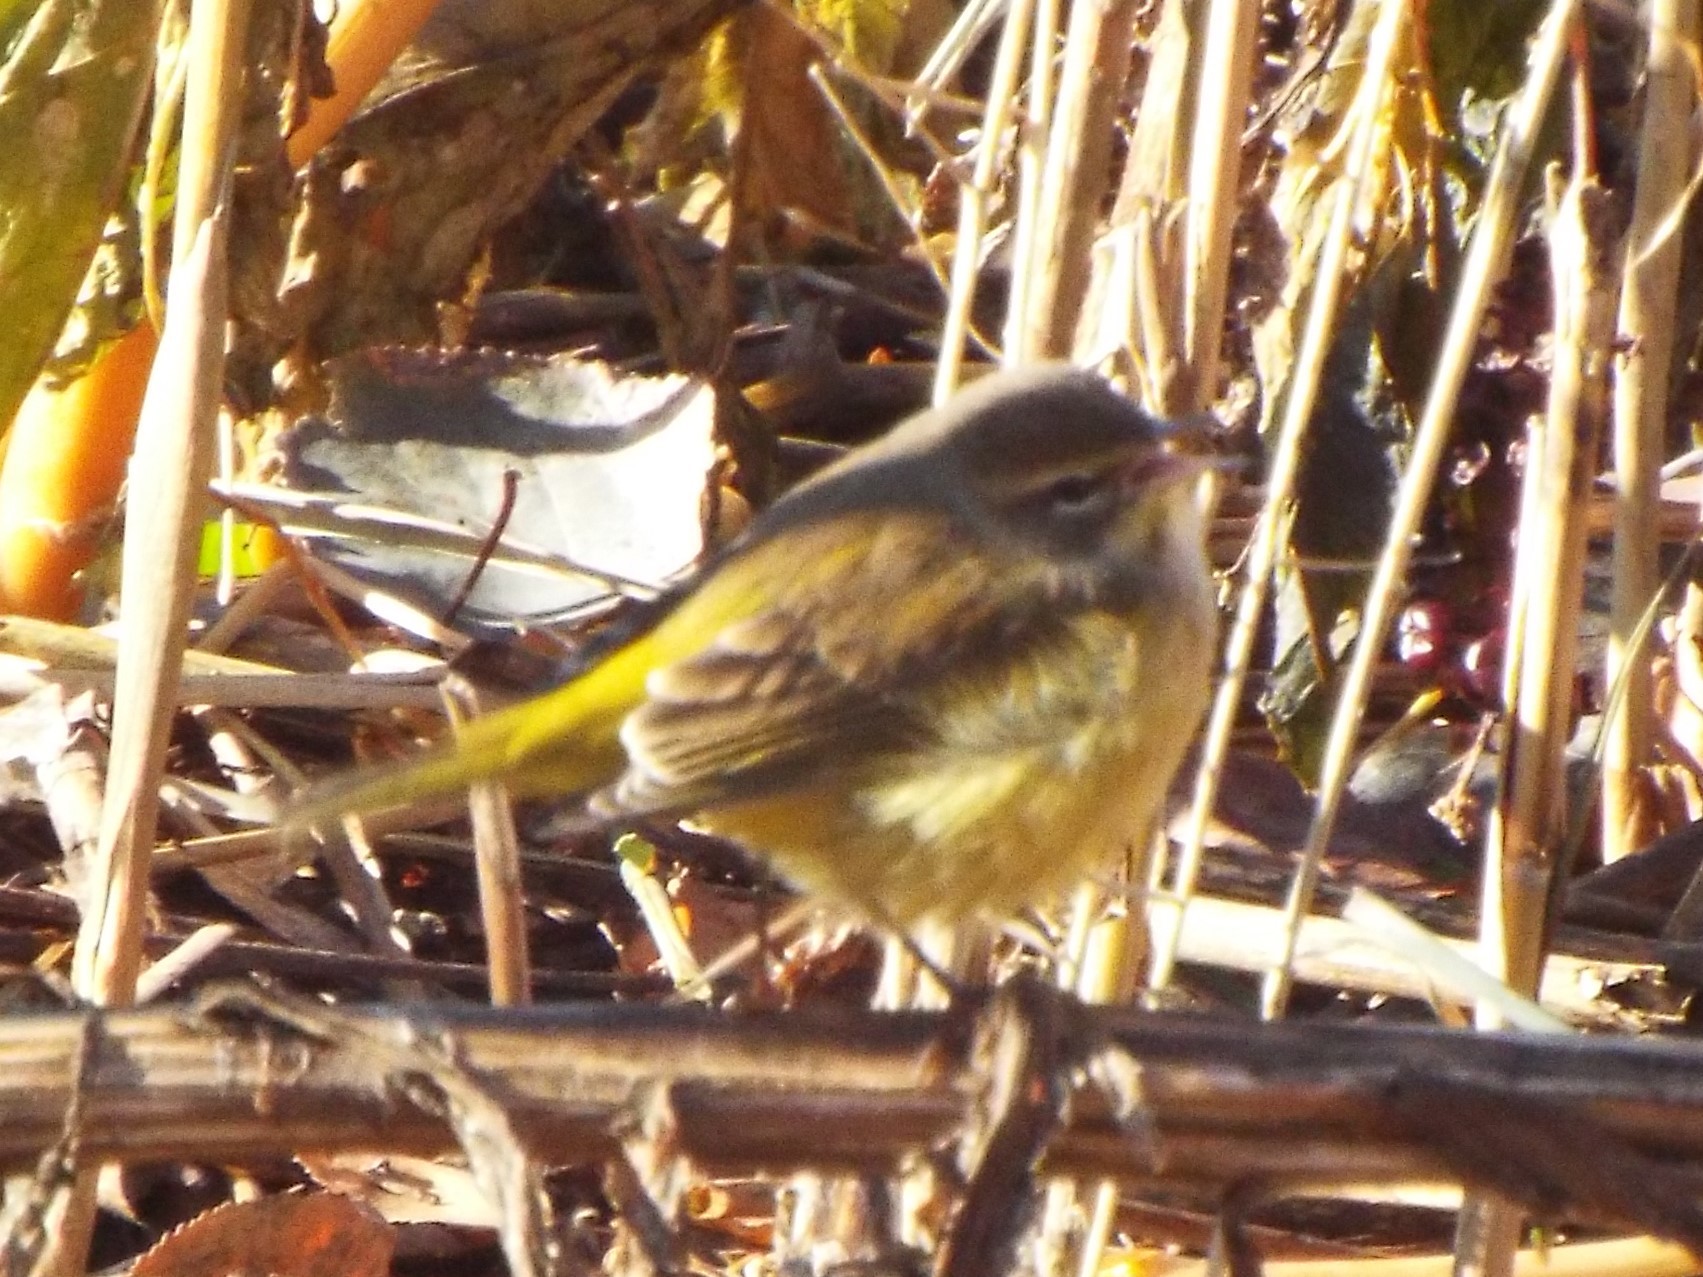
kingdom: Animalia
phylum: Chordata
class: Aves
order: Passeriformes
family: Parulidae
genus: Setophaga
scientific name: Setophaga palmarum
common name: Palm warbler
